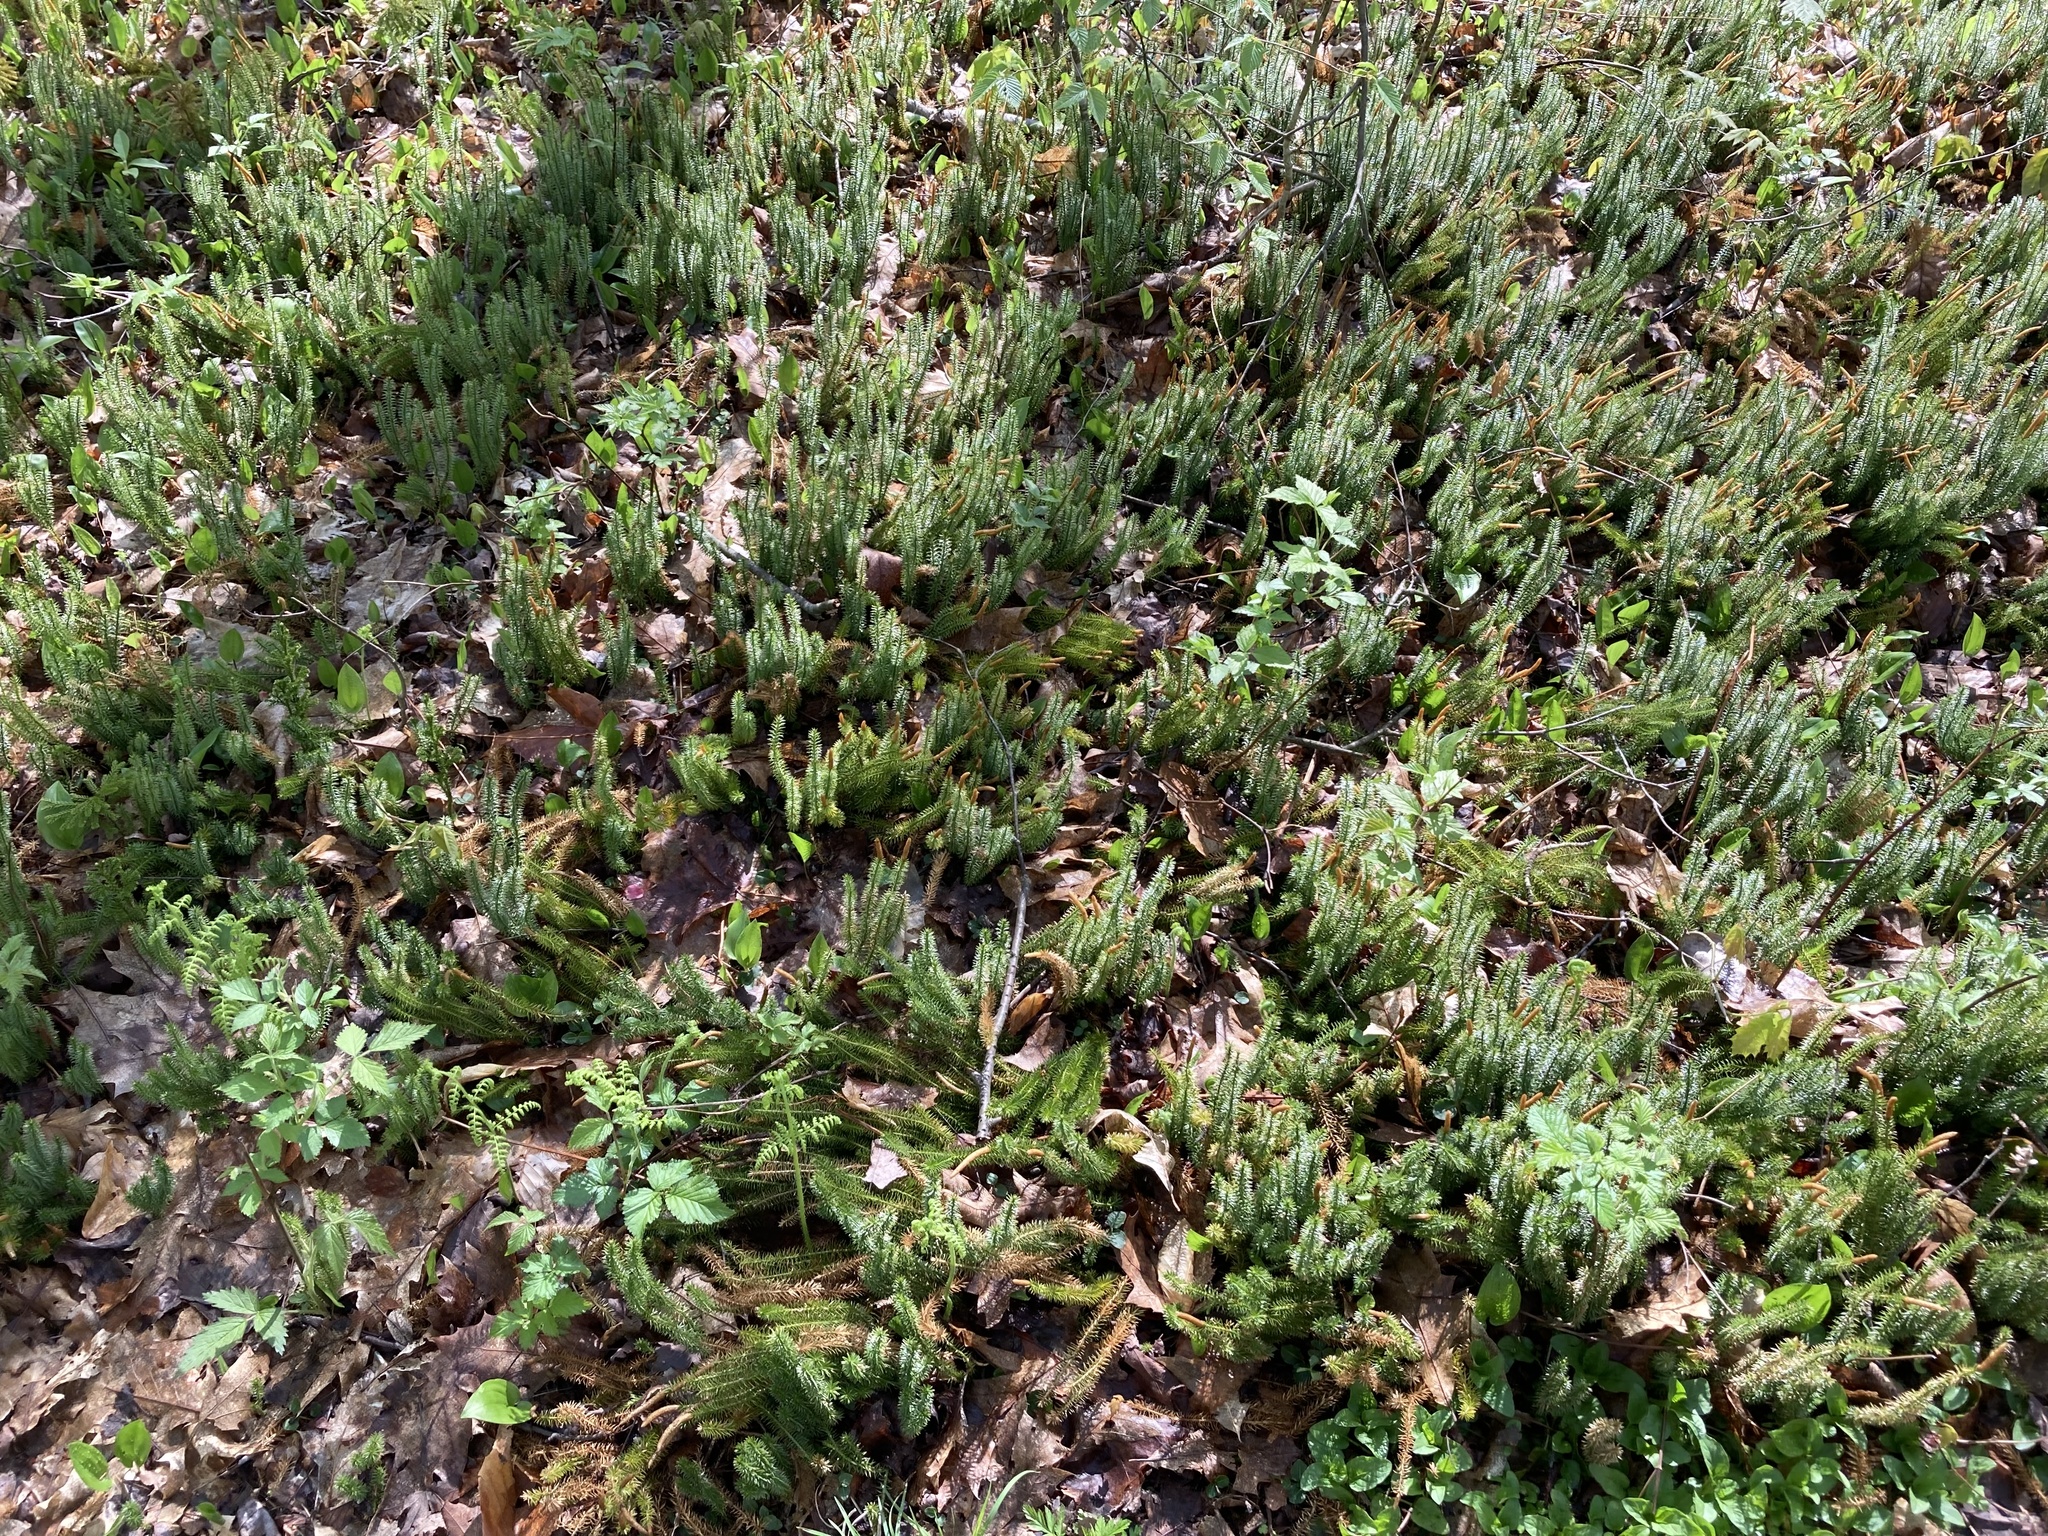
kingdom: Plantae
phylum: Tracheophyta
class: Lycopodiopsida
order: Lycopodiales
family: Lycopodiaceae
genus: Spinulum
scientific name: Spinulum annotinum
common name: Interrupted club-moss
